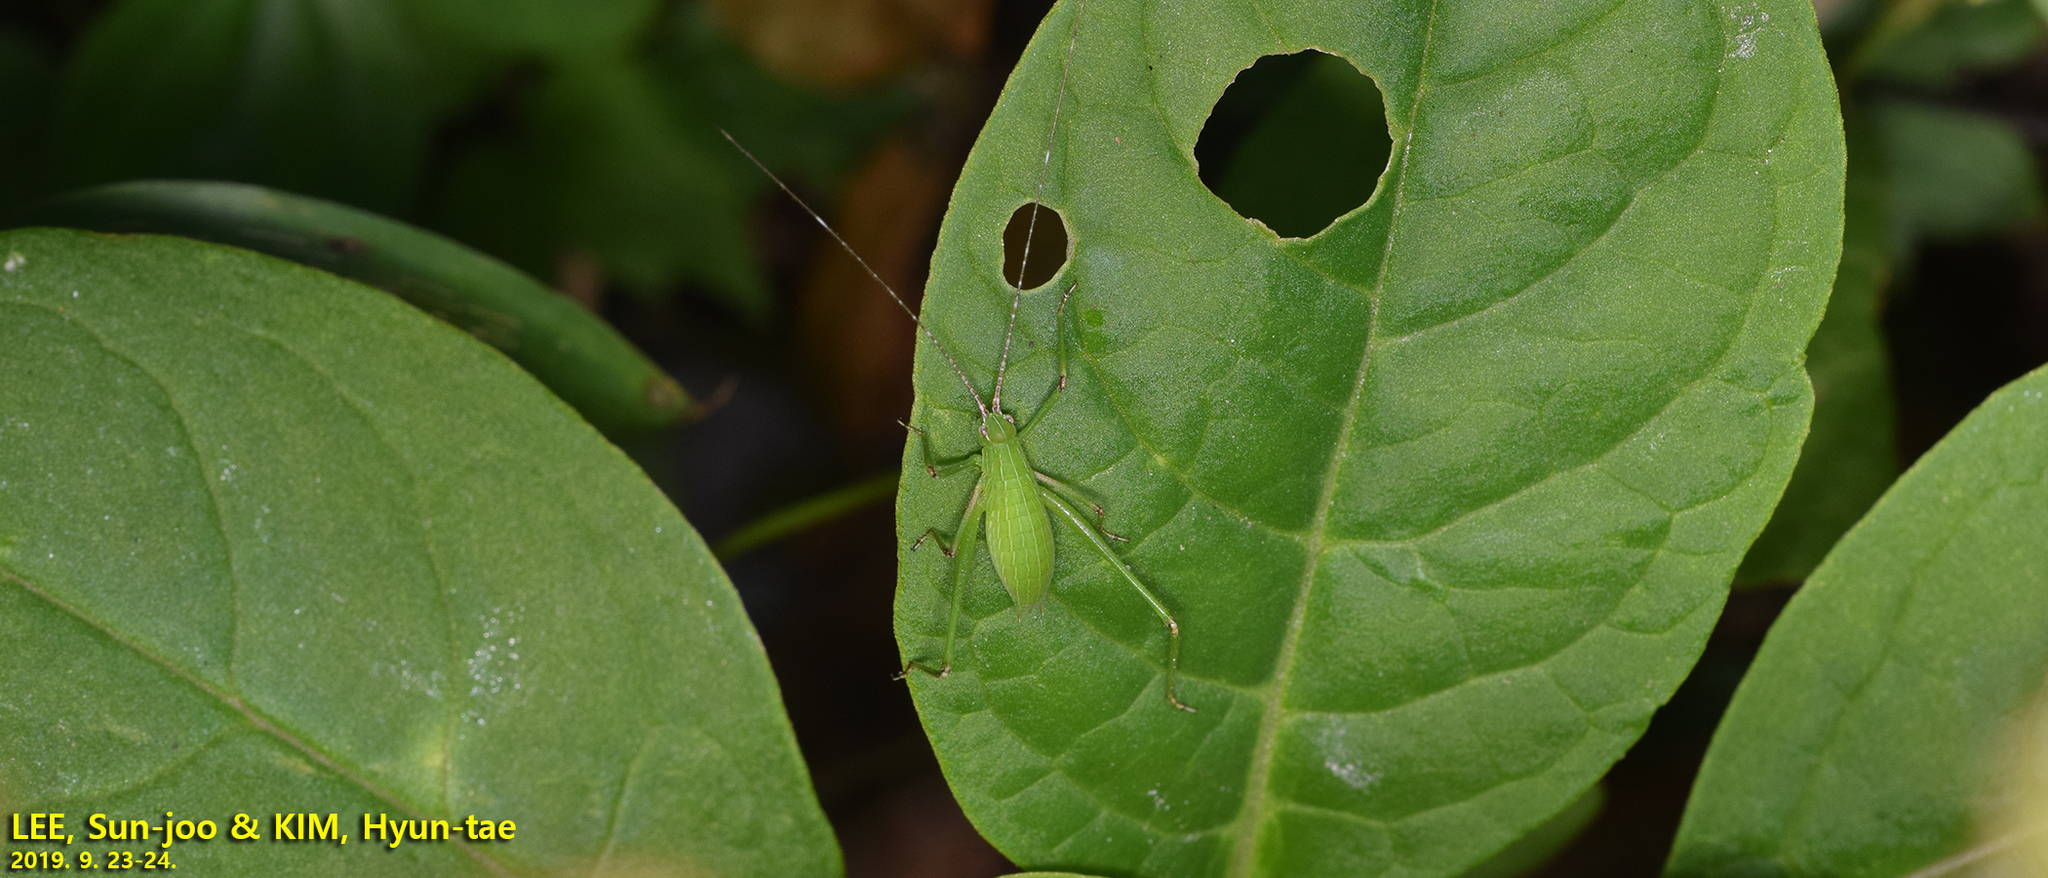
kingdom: Animalia
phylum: Arthropoda
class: Insecta
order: Orthoptera
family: Tettigoniidae
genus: Ducetia
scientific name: Ducetia japonica
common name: Pacific ducetia
